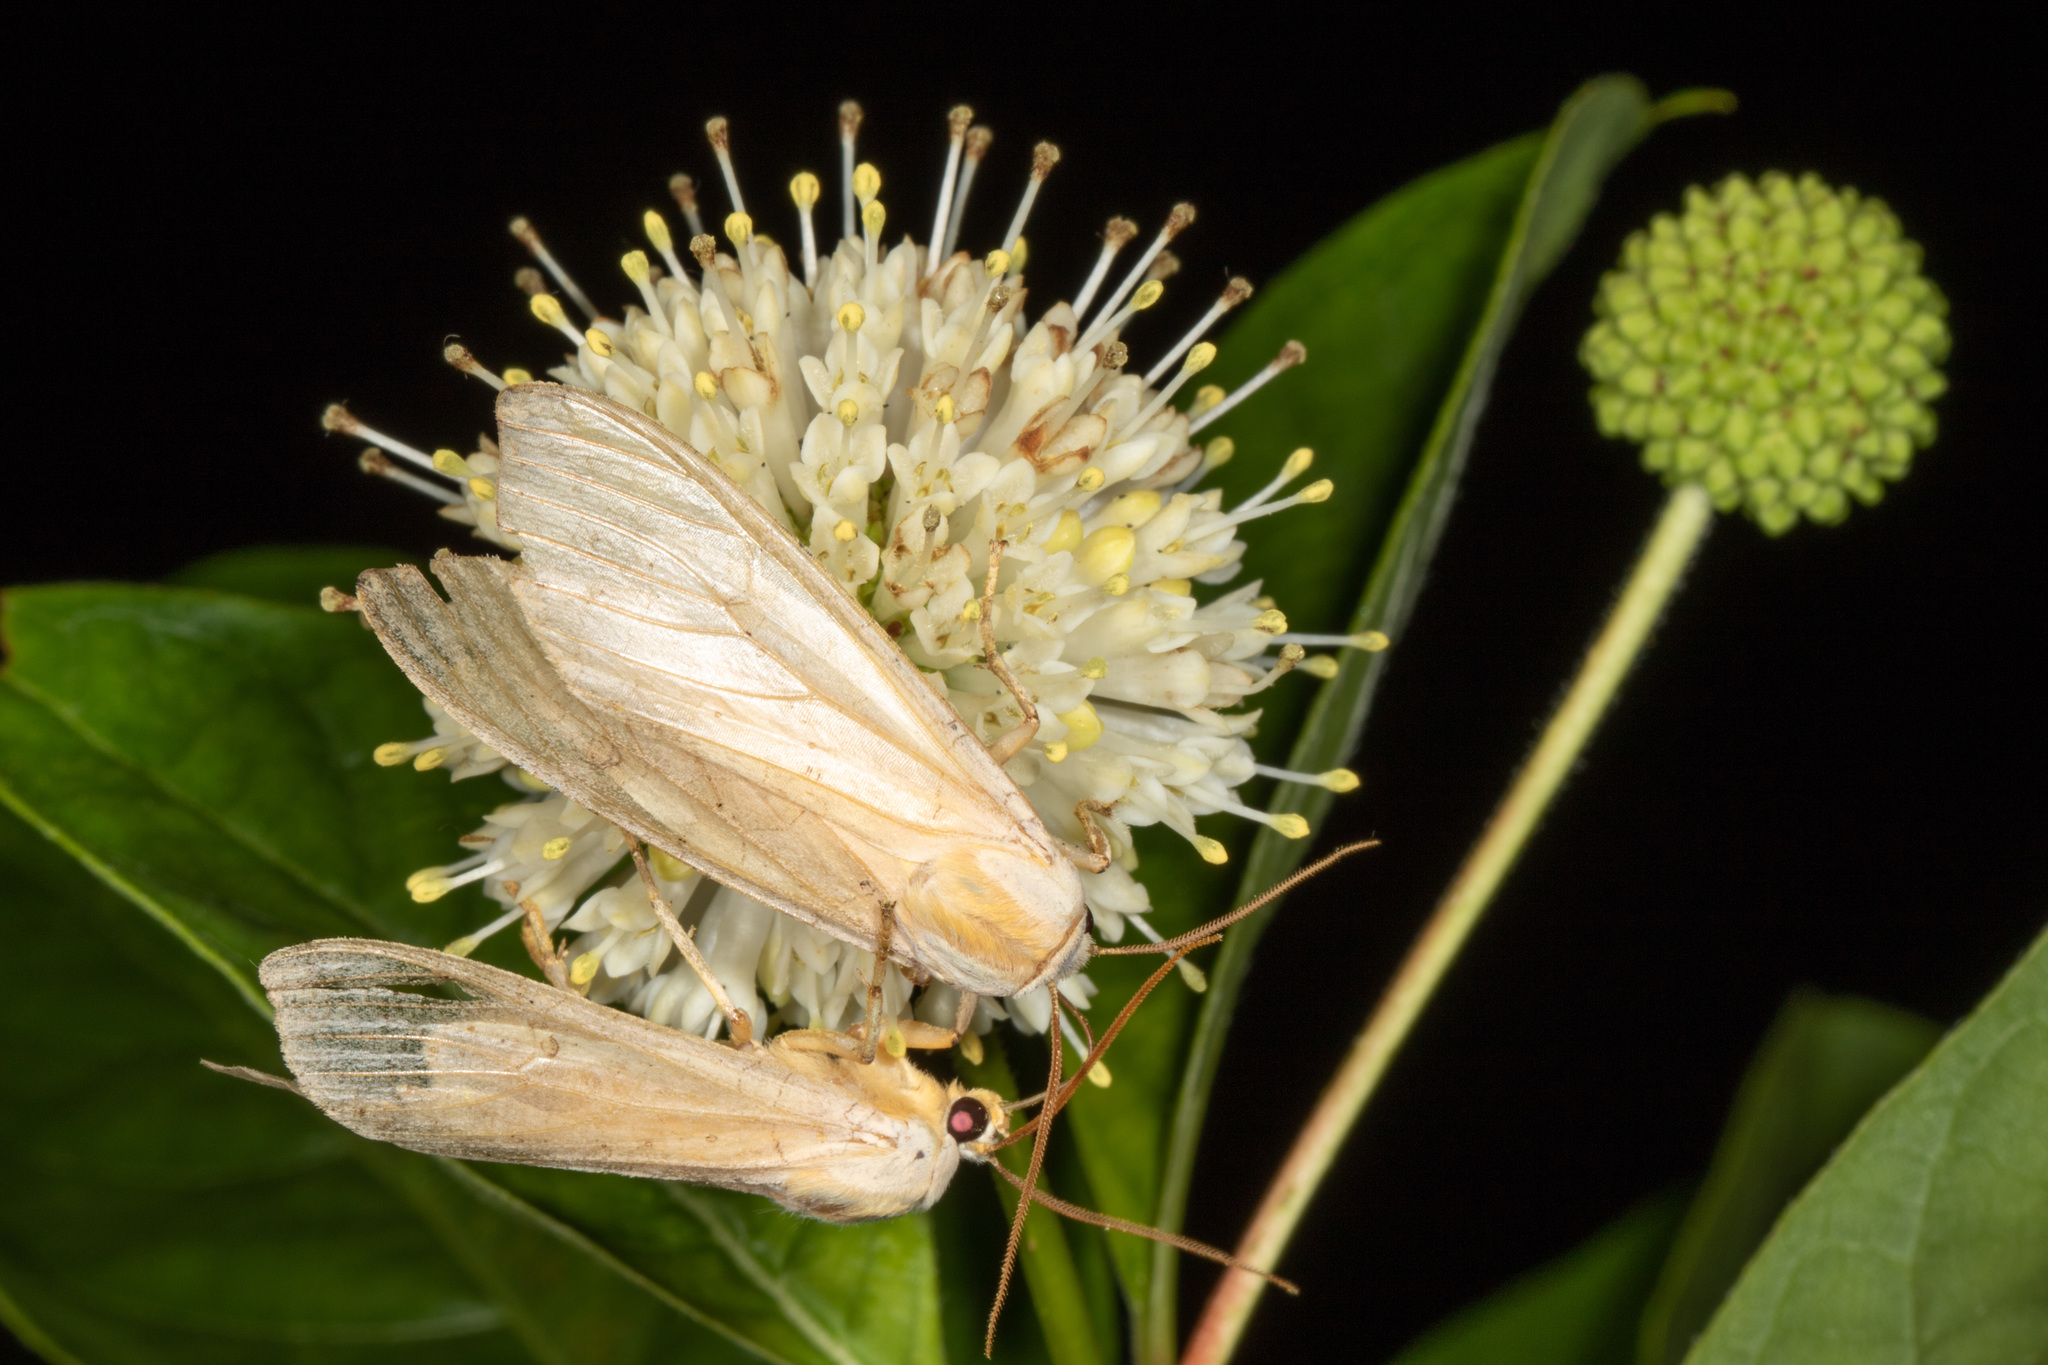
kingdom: Animalia
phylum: Arthropoda
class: Insecta
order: Lepidoptera
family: Erebidae
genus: Halysidota
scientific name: Halysidota tessellaris
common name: Banded tussock moth
